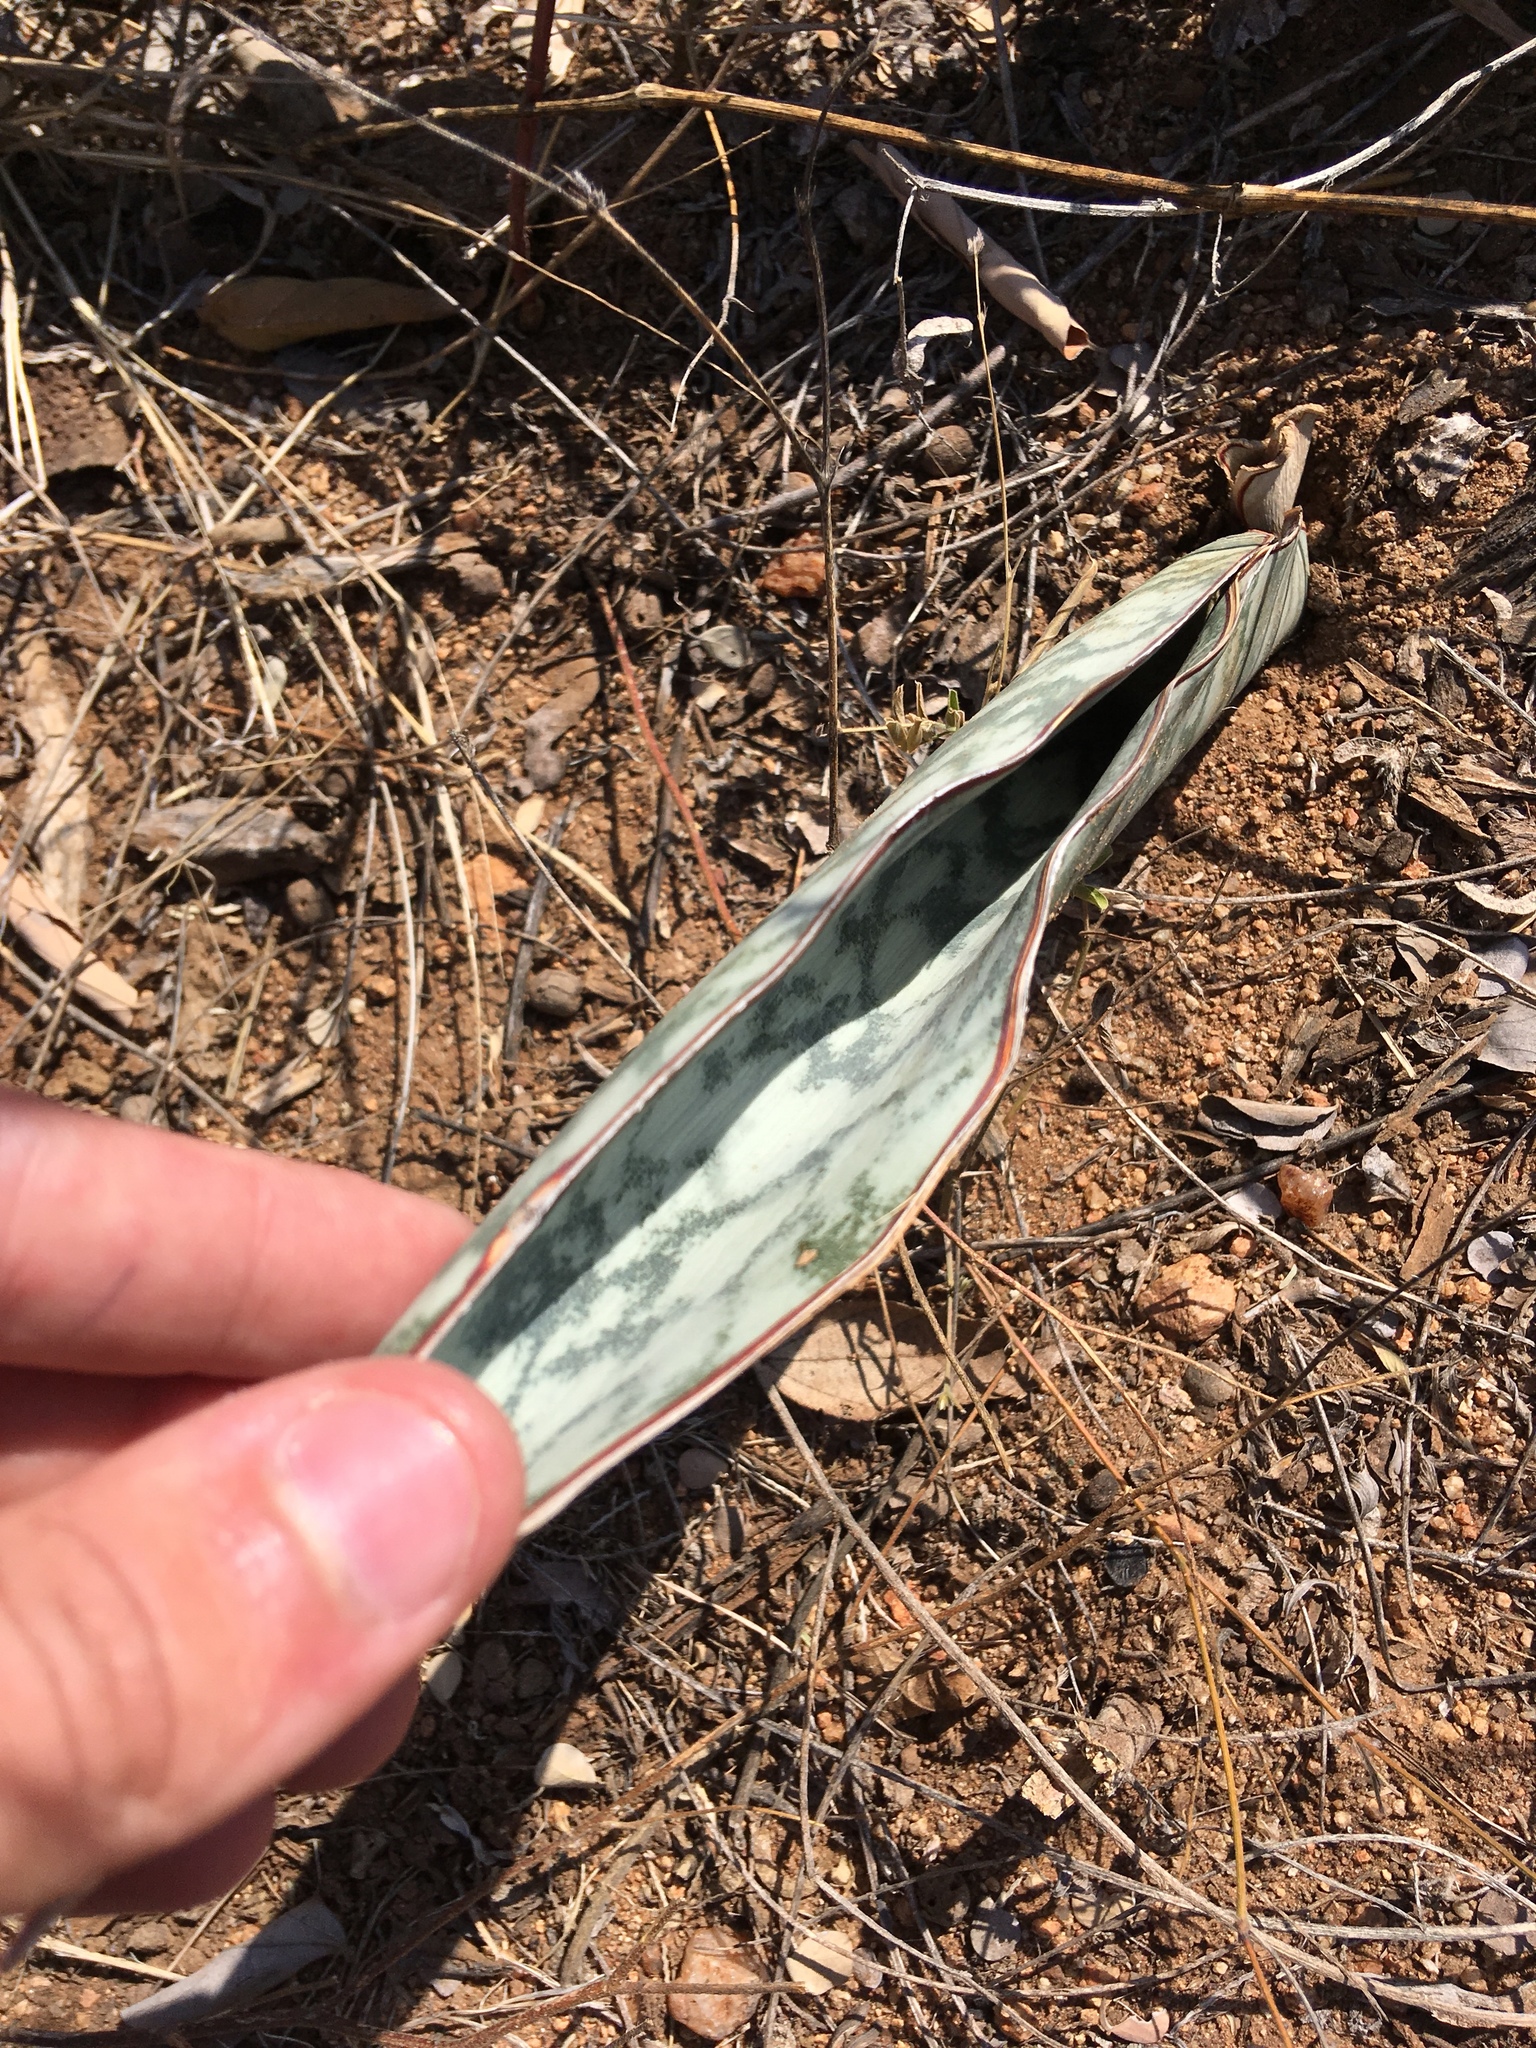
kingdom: Plantae
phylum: Tracheophyta
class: Liliopsida
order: Asparagales
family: Asparagaceae
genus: Dracaena
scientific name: Dracaena hyacinthoides
